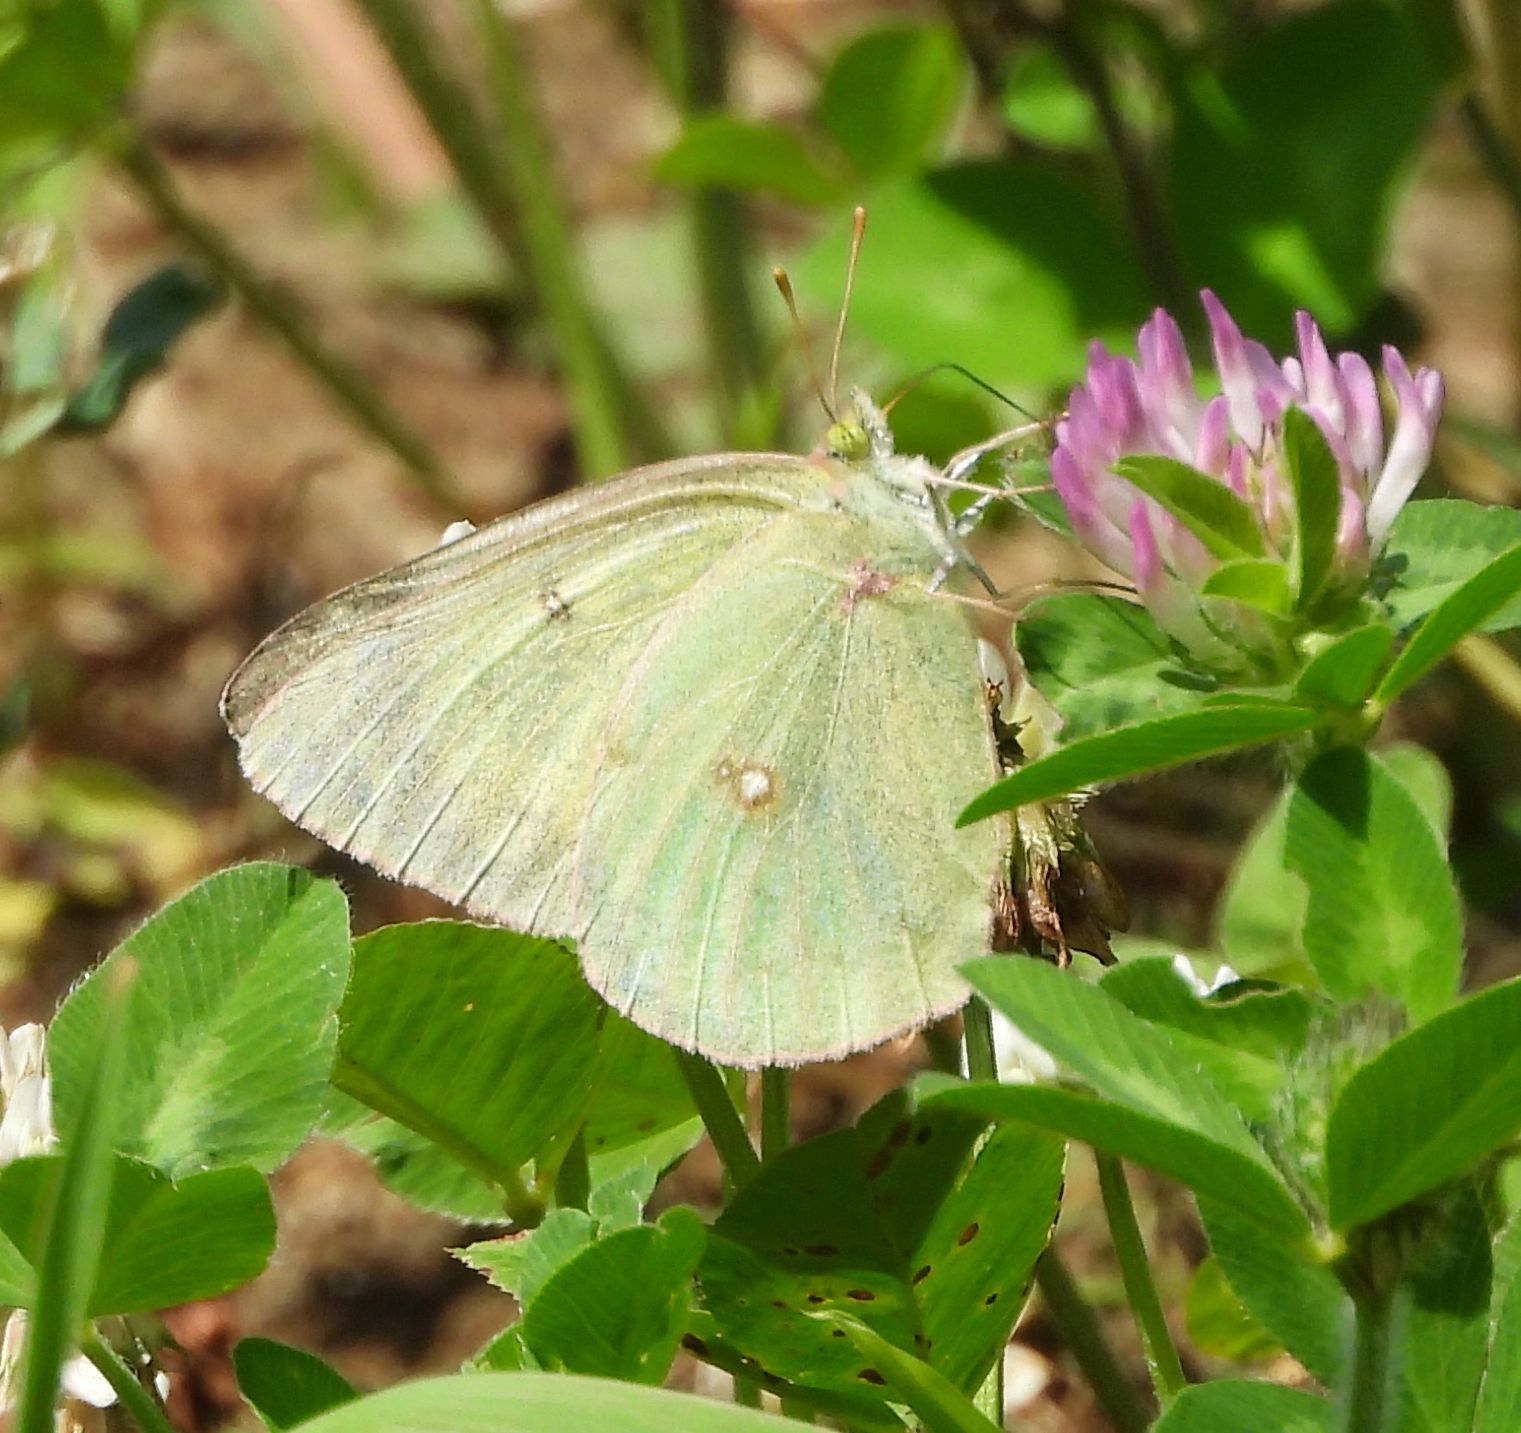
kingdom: Animalia
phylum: Arthropoda
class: Insecta
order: Lepidoptera
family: Pieridae
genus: Colias
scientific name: Colias philodice
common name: Clouded sulphur
